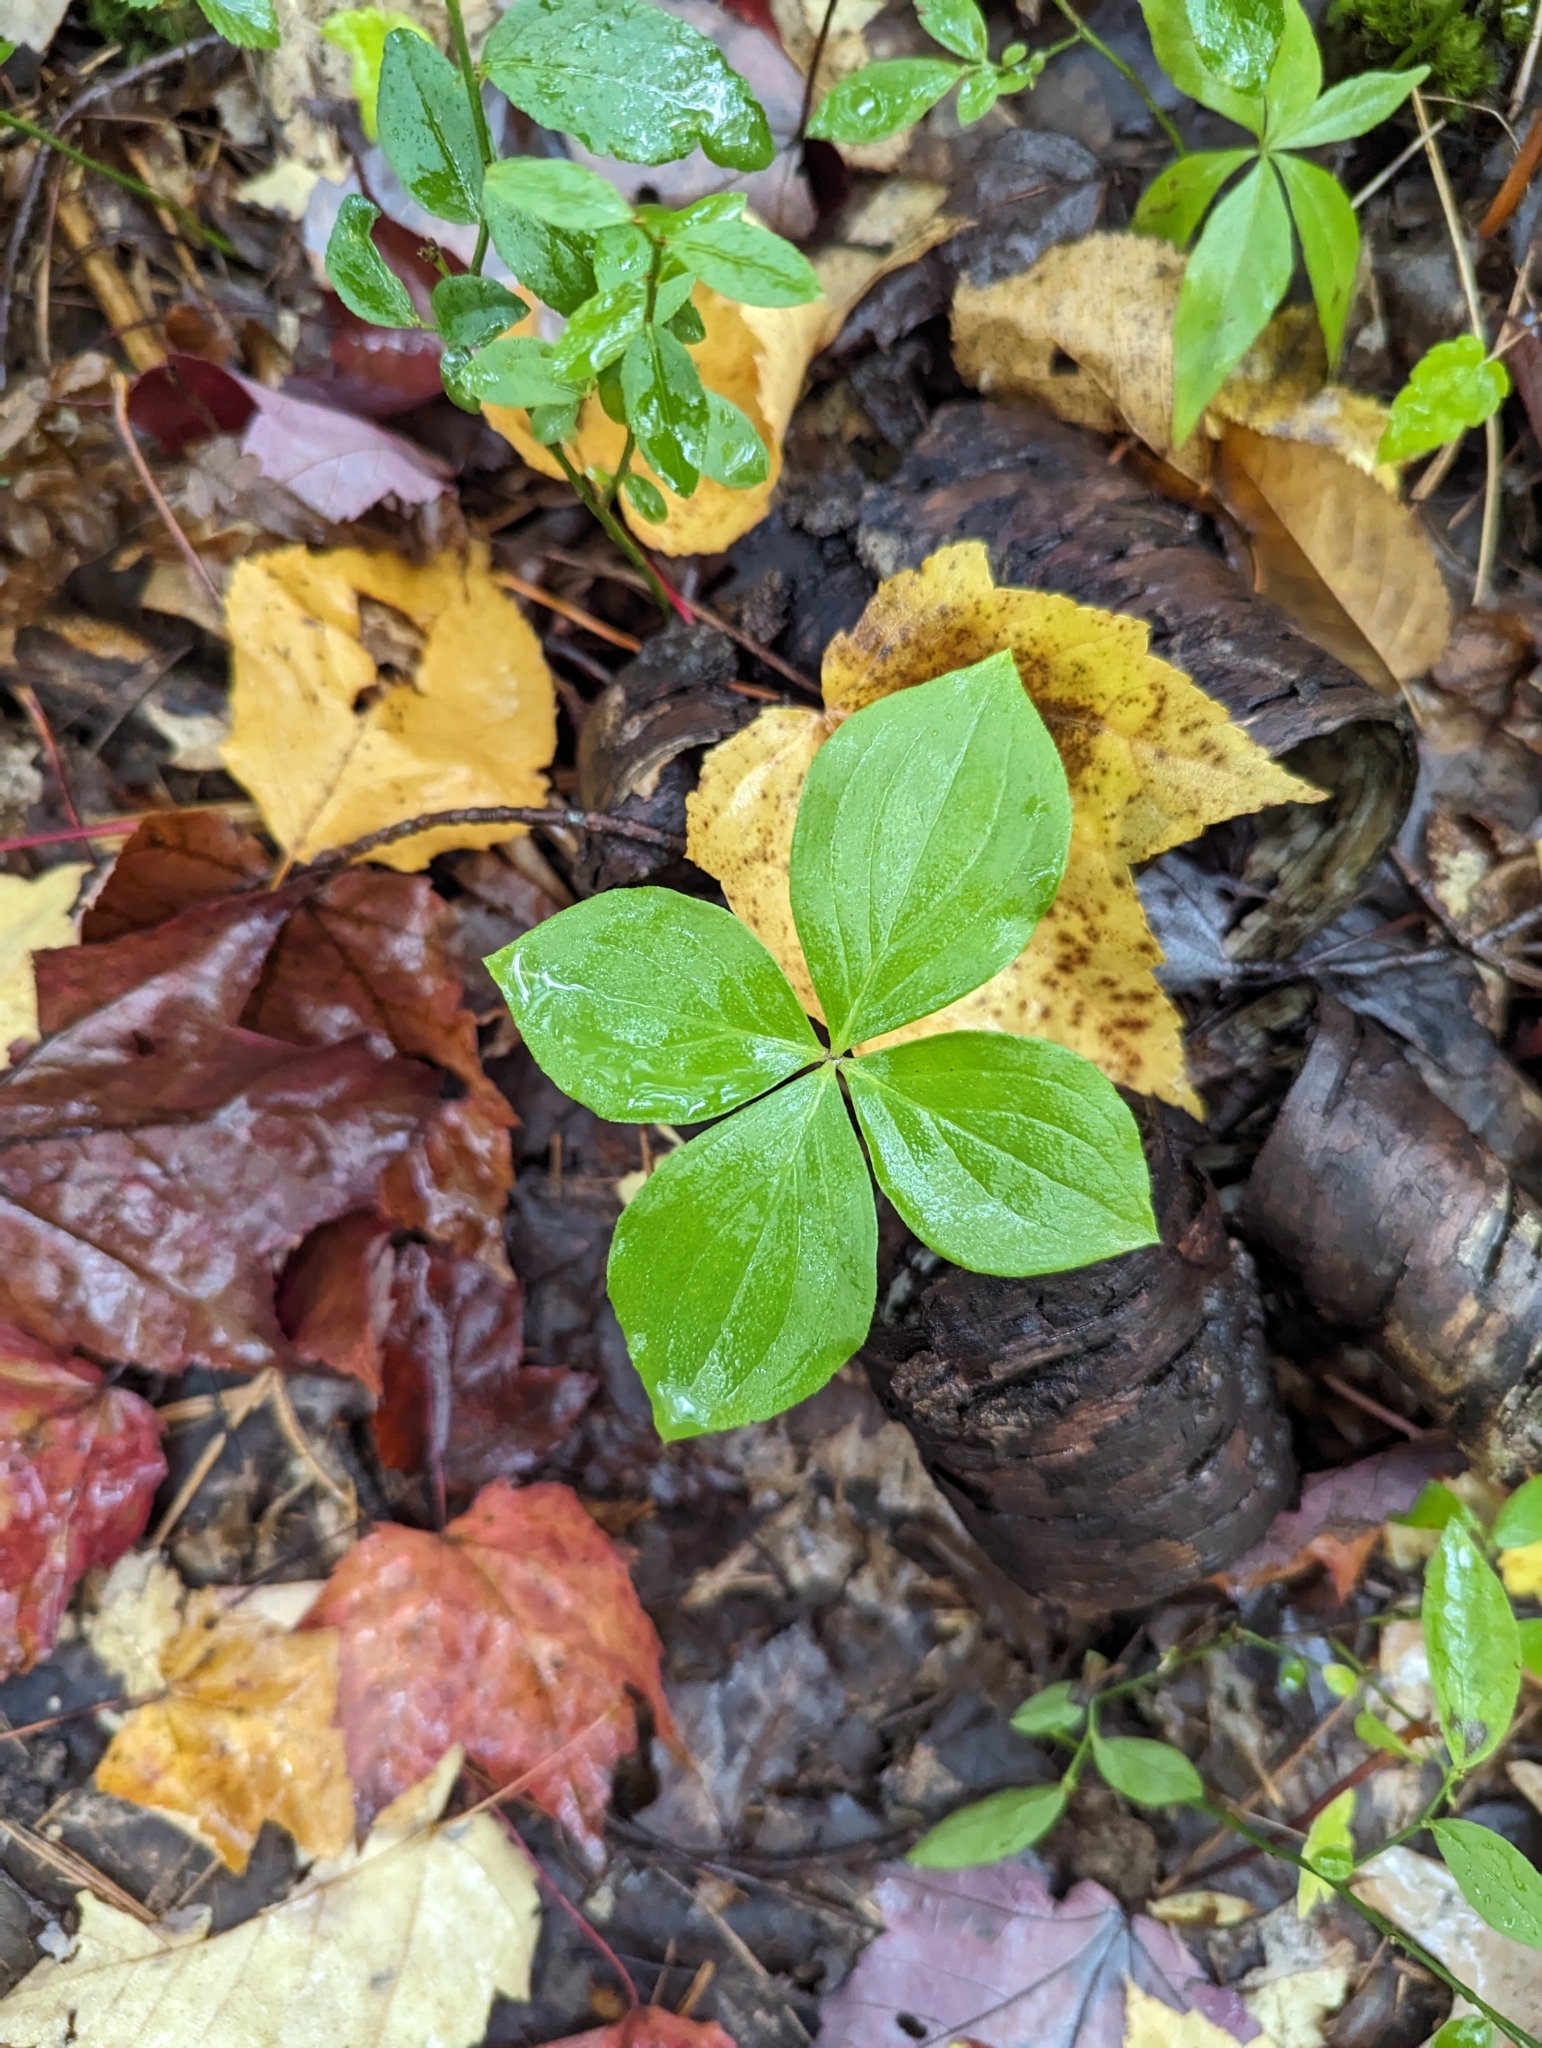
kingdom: Plantae
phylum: Tracheophyta
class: Magnoliopsida
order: Cornales
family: Cornaceae
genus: Cornus
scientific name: Cornus canadensis
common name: Creeping dogwood
